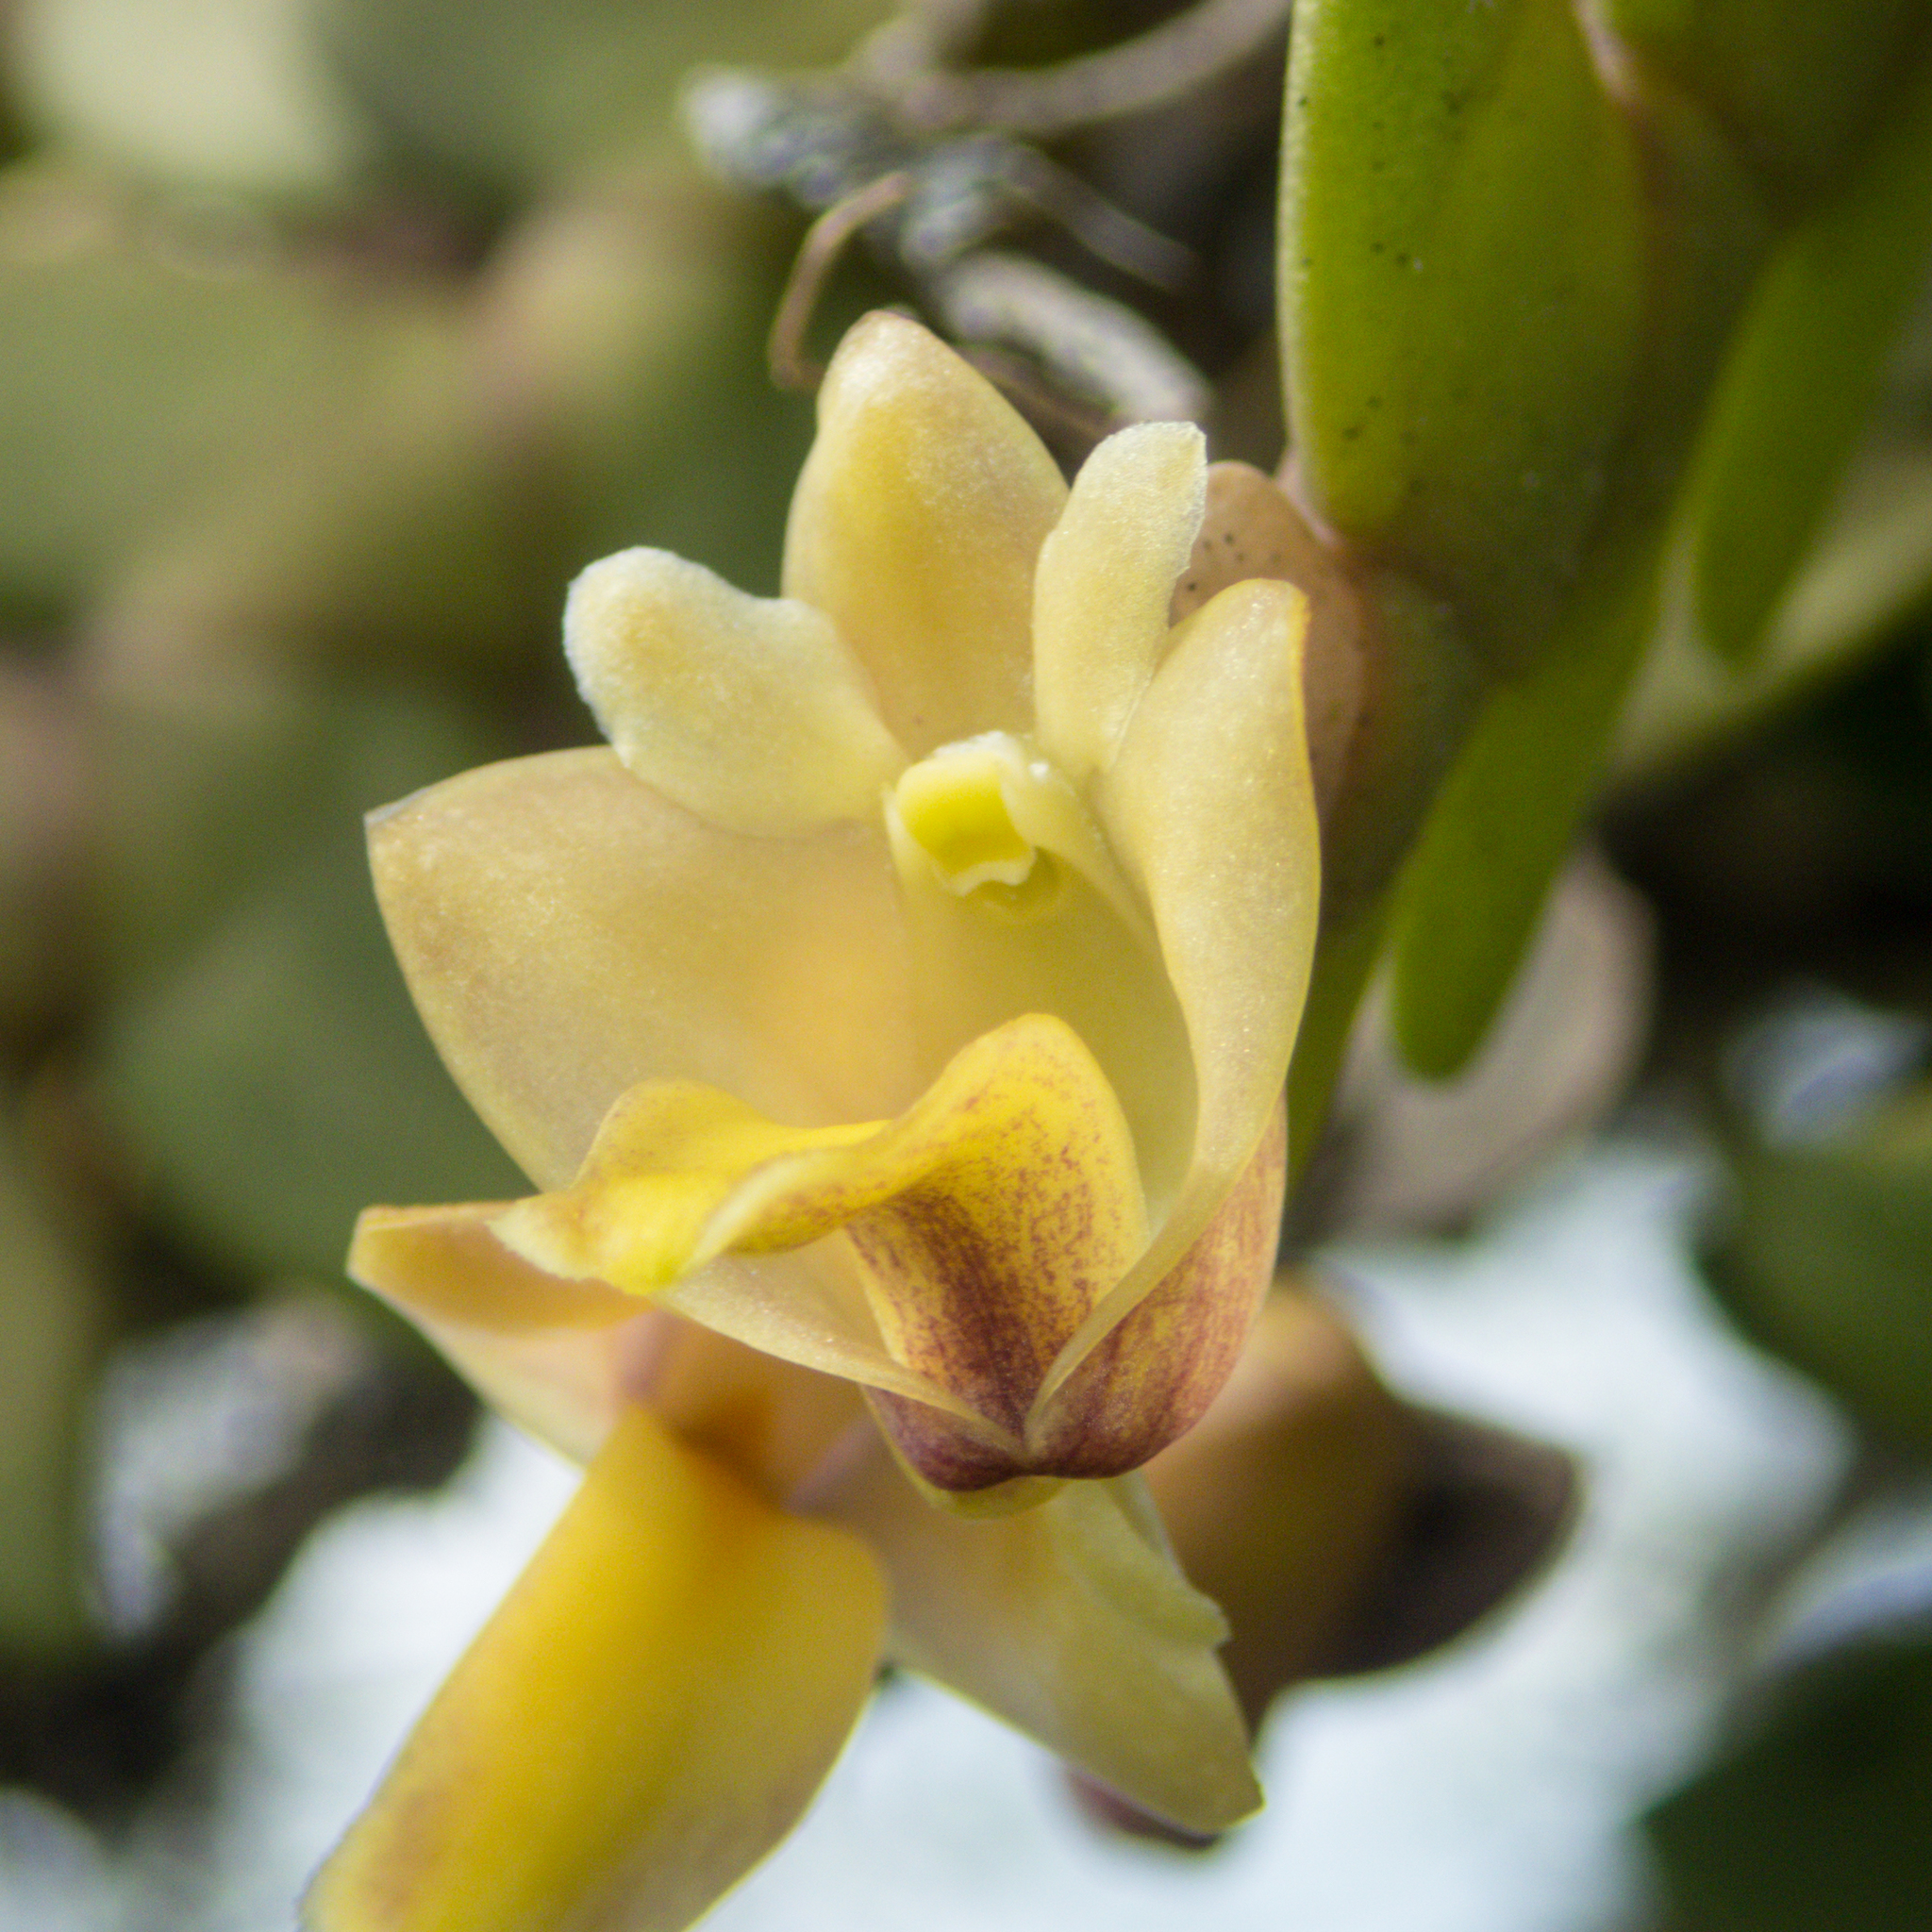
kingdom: Plantae
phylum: Tracheophyta
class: Liliopsida
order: Asparagales
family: Orchidaceae
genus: Dendrobium
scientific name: Dendrobium leonis
